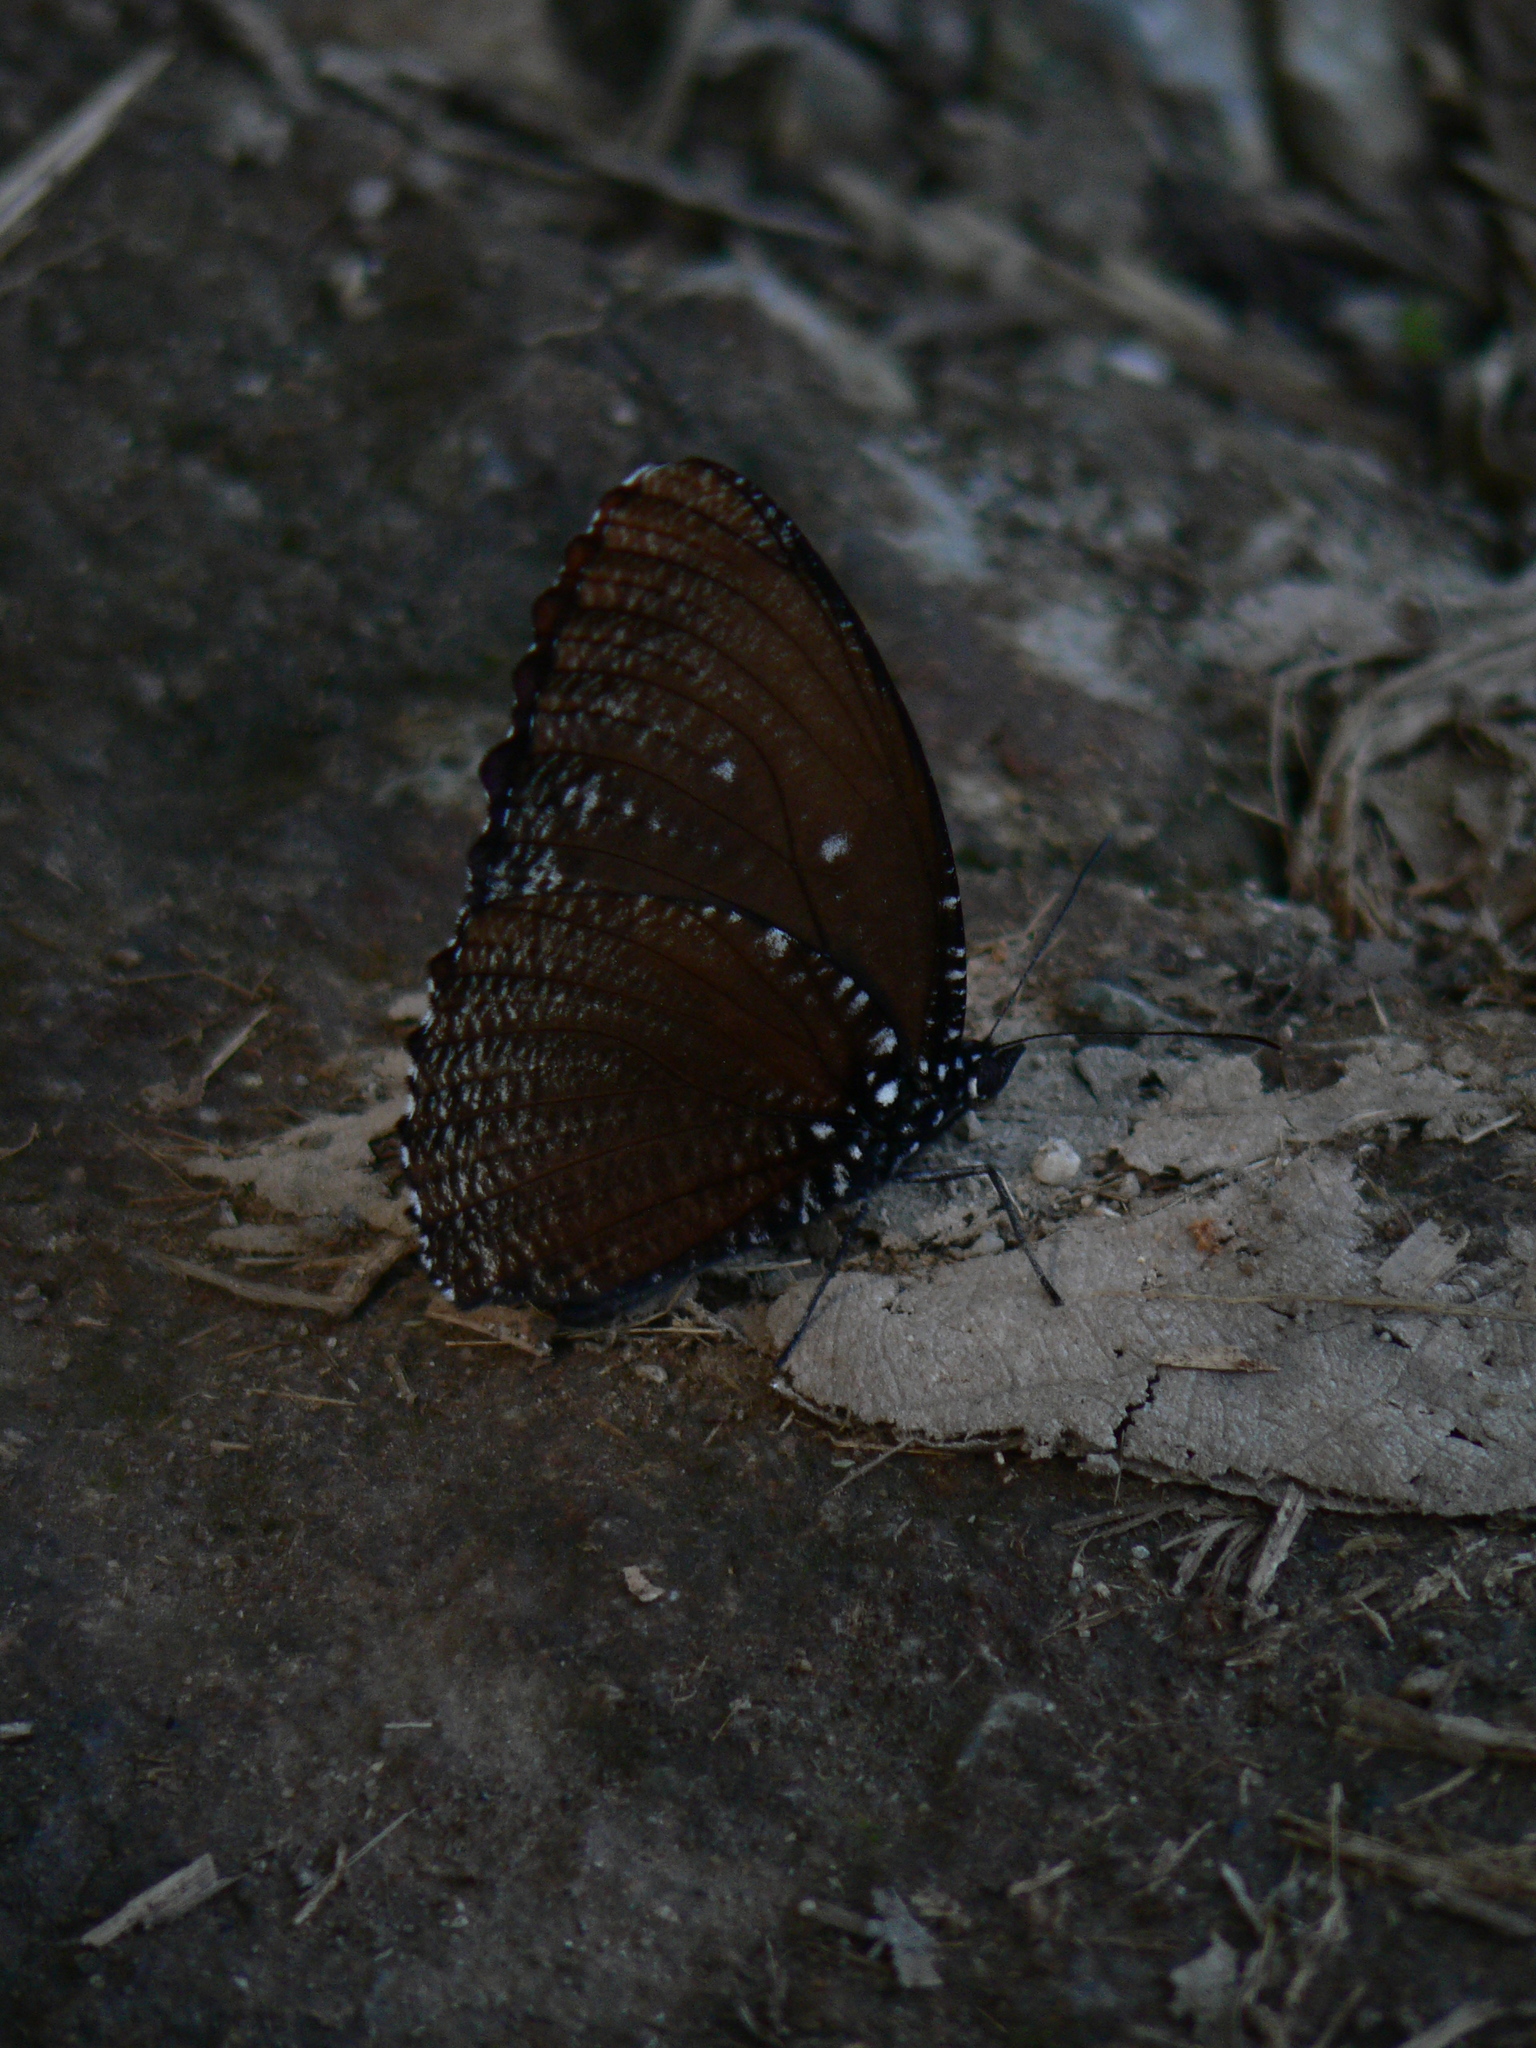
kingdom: Animalia
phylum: Arthropoda
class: Insecta
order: Lepidoptera
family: Nymphalidae
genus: Elymnias
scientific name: Elymnias malelas
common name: Spotted palmfly
